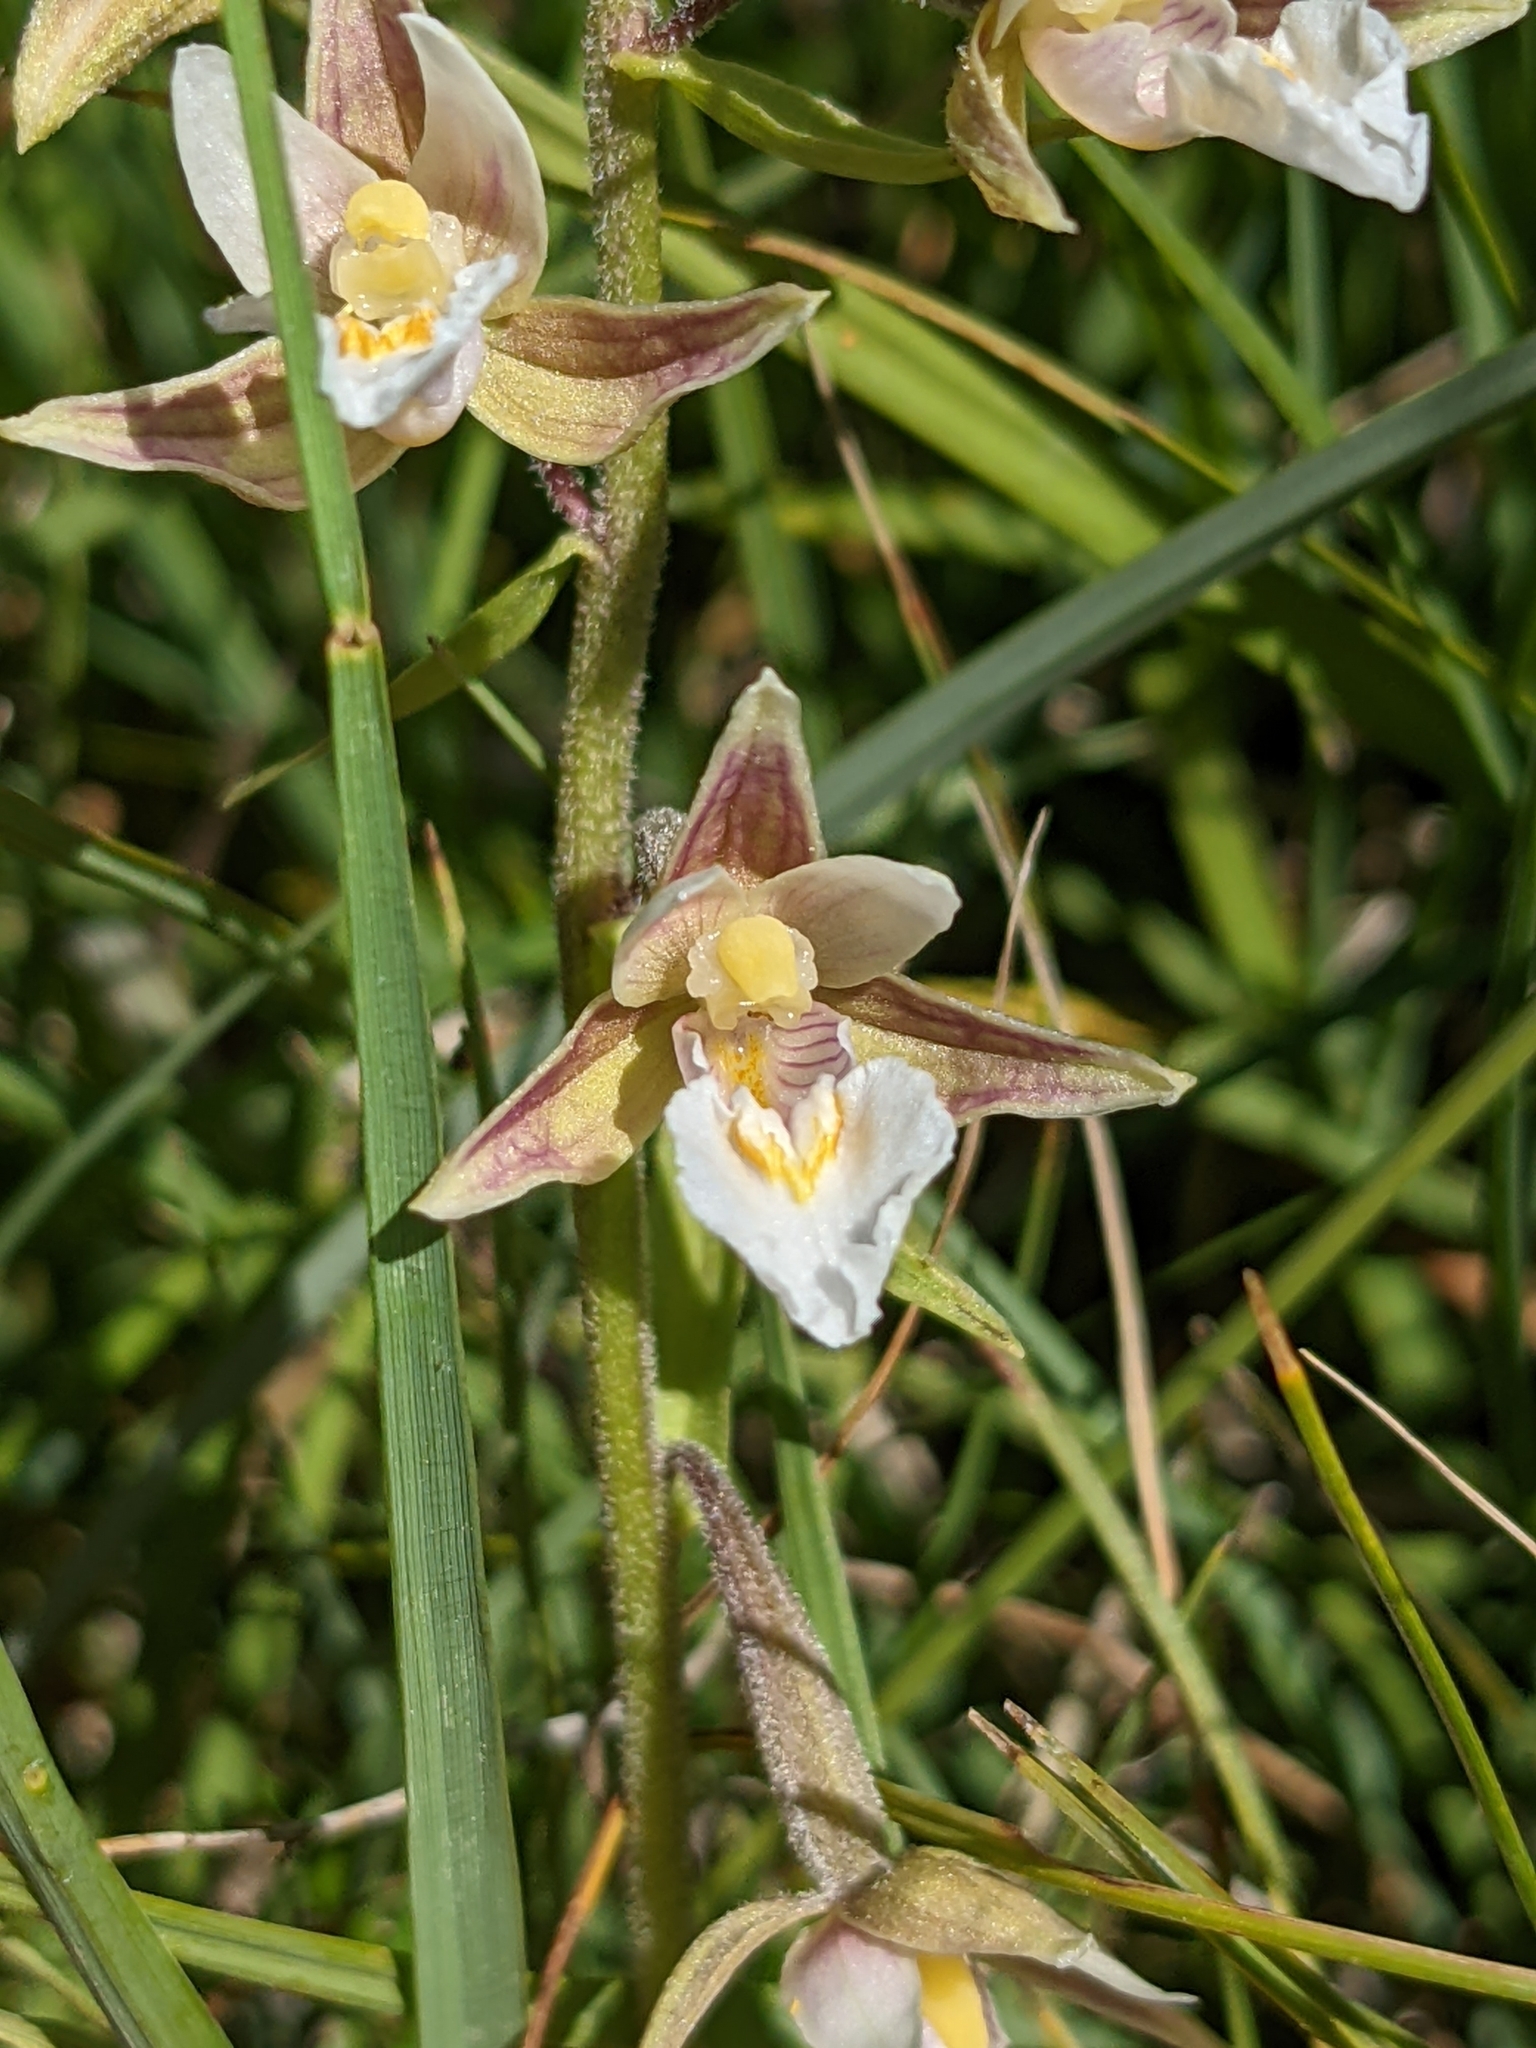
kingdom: Plantae
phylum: Tracheophyta
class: Liliopsida
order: Asparagales
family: Orchidaceae
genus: Epipactis
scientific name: Epipactis palustris
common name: Marsh helleborine
